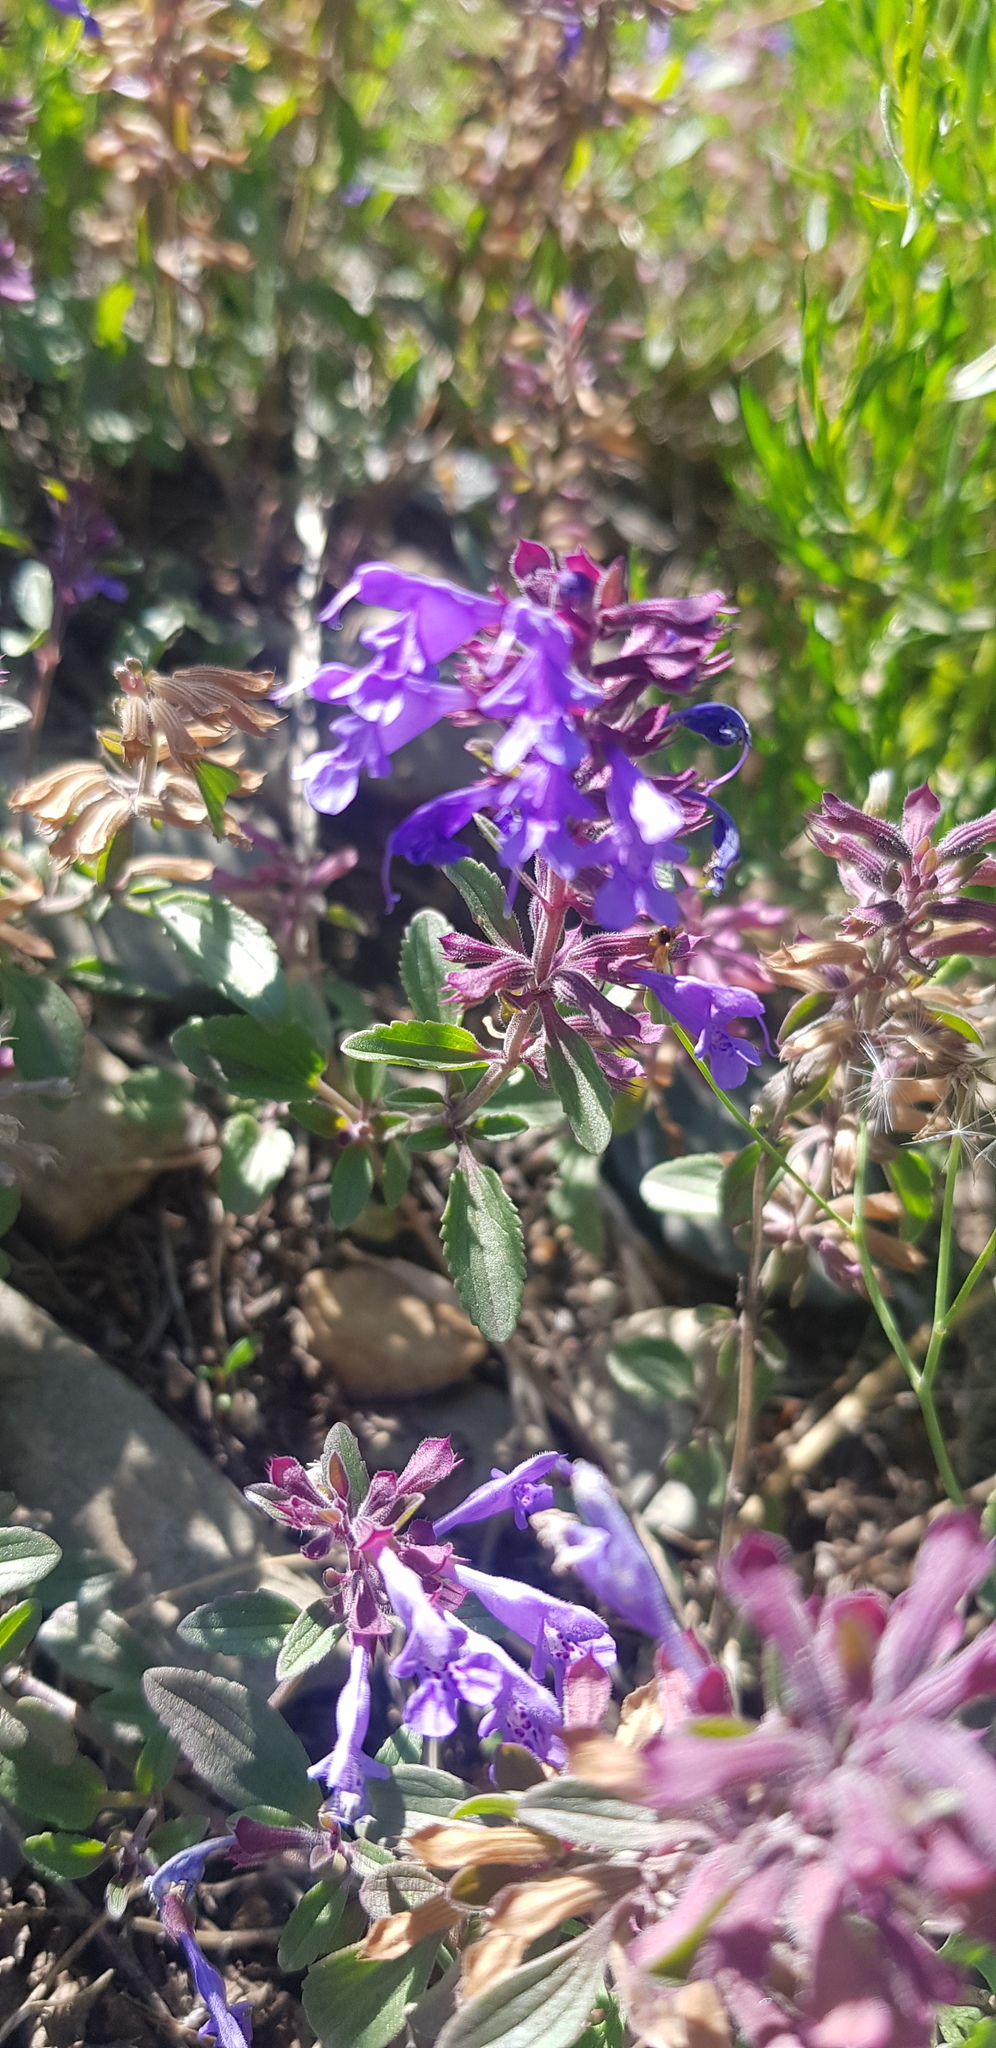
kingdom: Plantae
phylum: Tracheophyta
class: Magnoliopsida
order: Lamiales
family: Lamiaceae
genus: Dracocephalum
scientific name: Dracocephalum nutans
